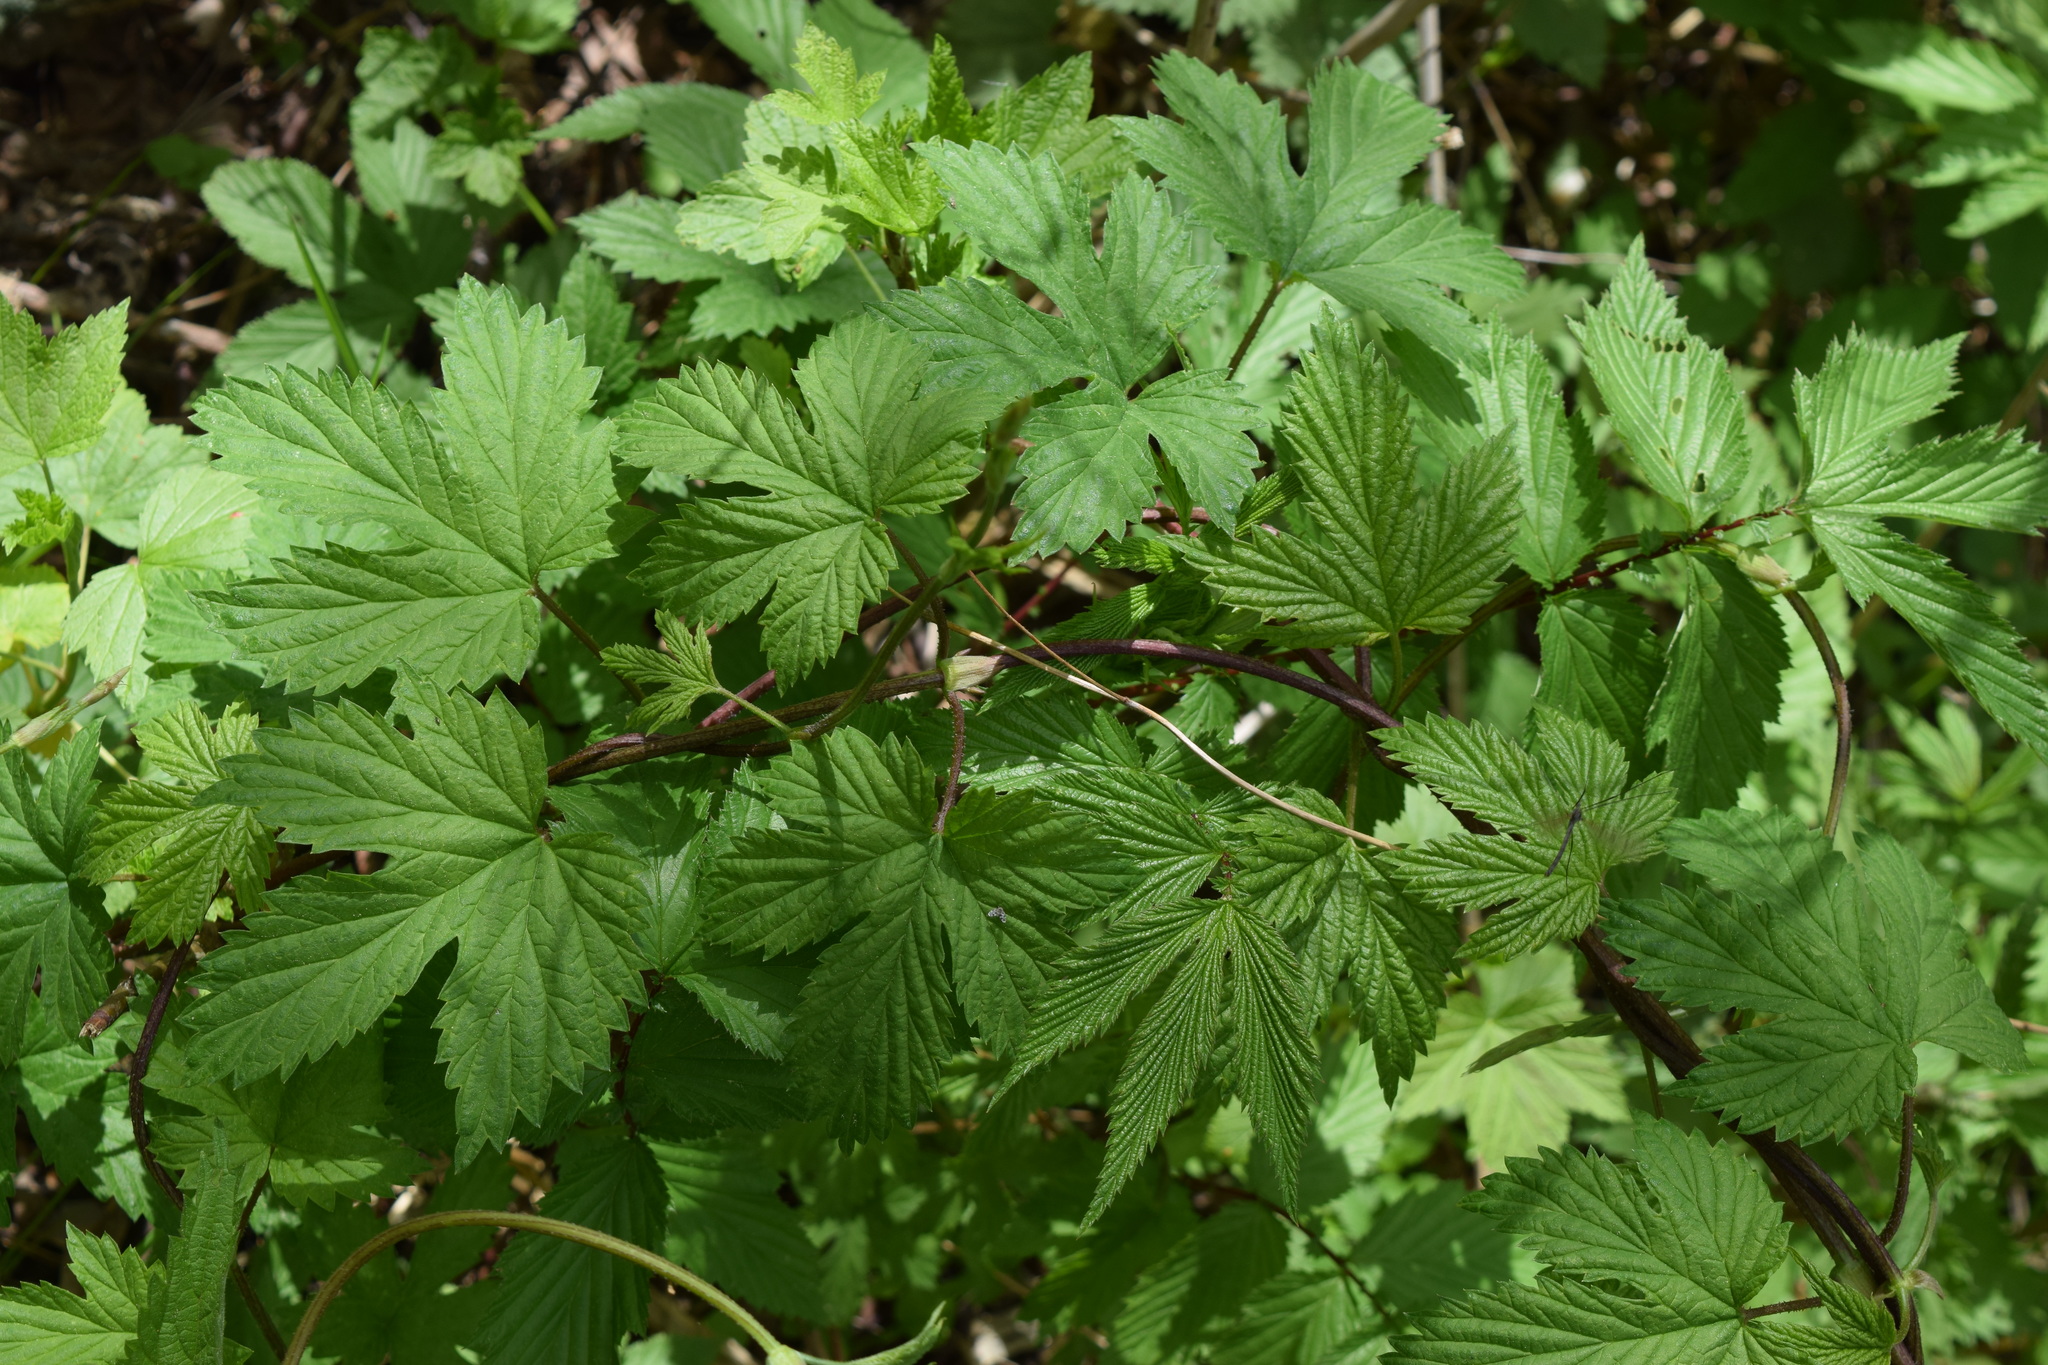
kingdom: Plantae
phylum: Tracheophyta
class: Magnoliopsida
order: Rosales
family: Cannabaceae
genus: Humulus
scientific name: Humulus lupulus
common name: Hop
